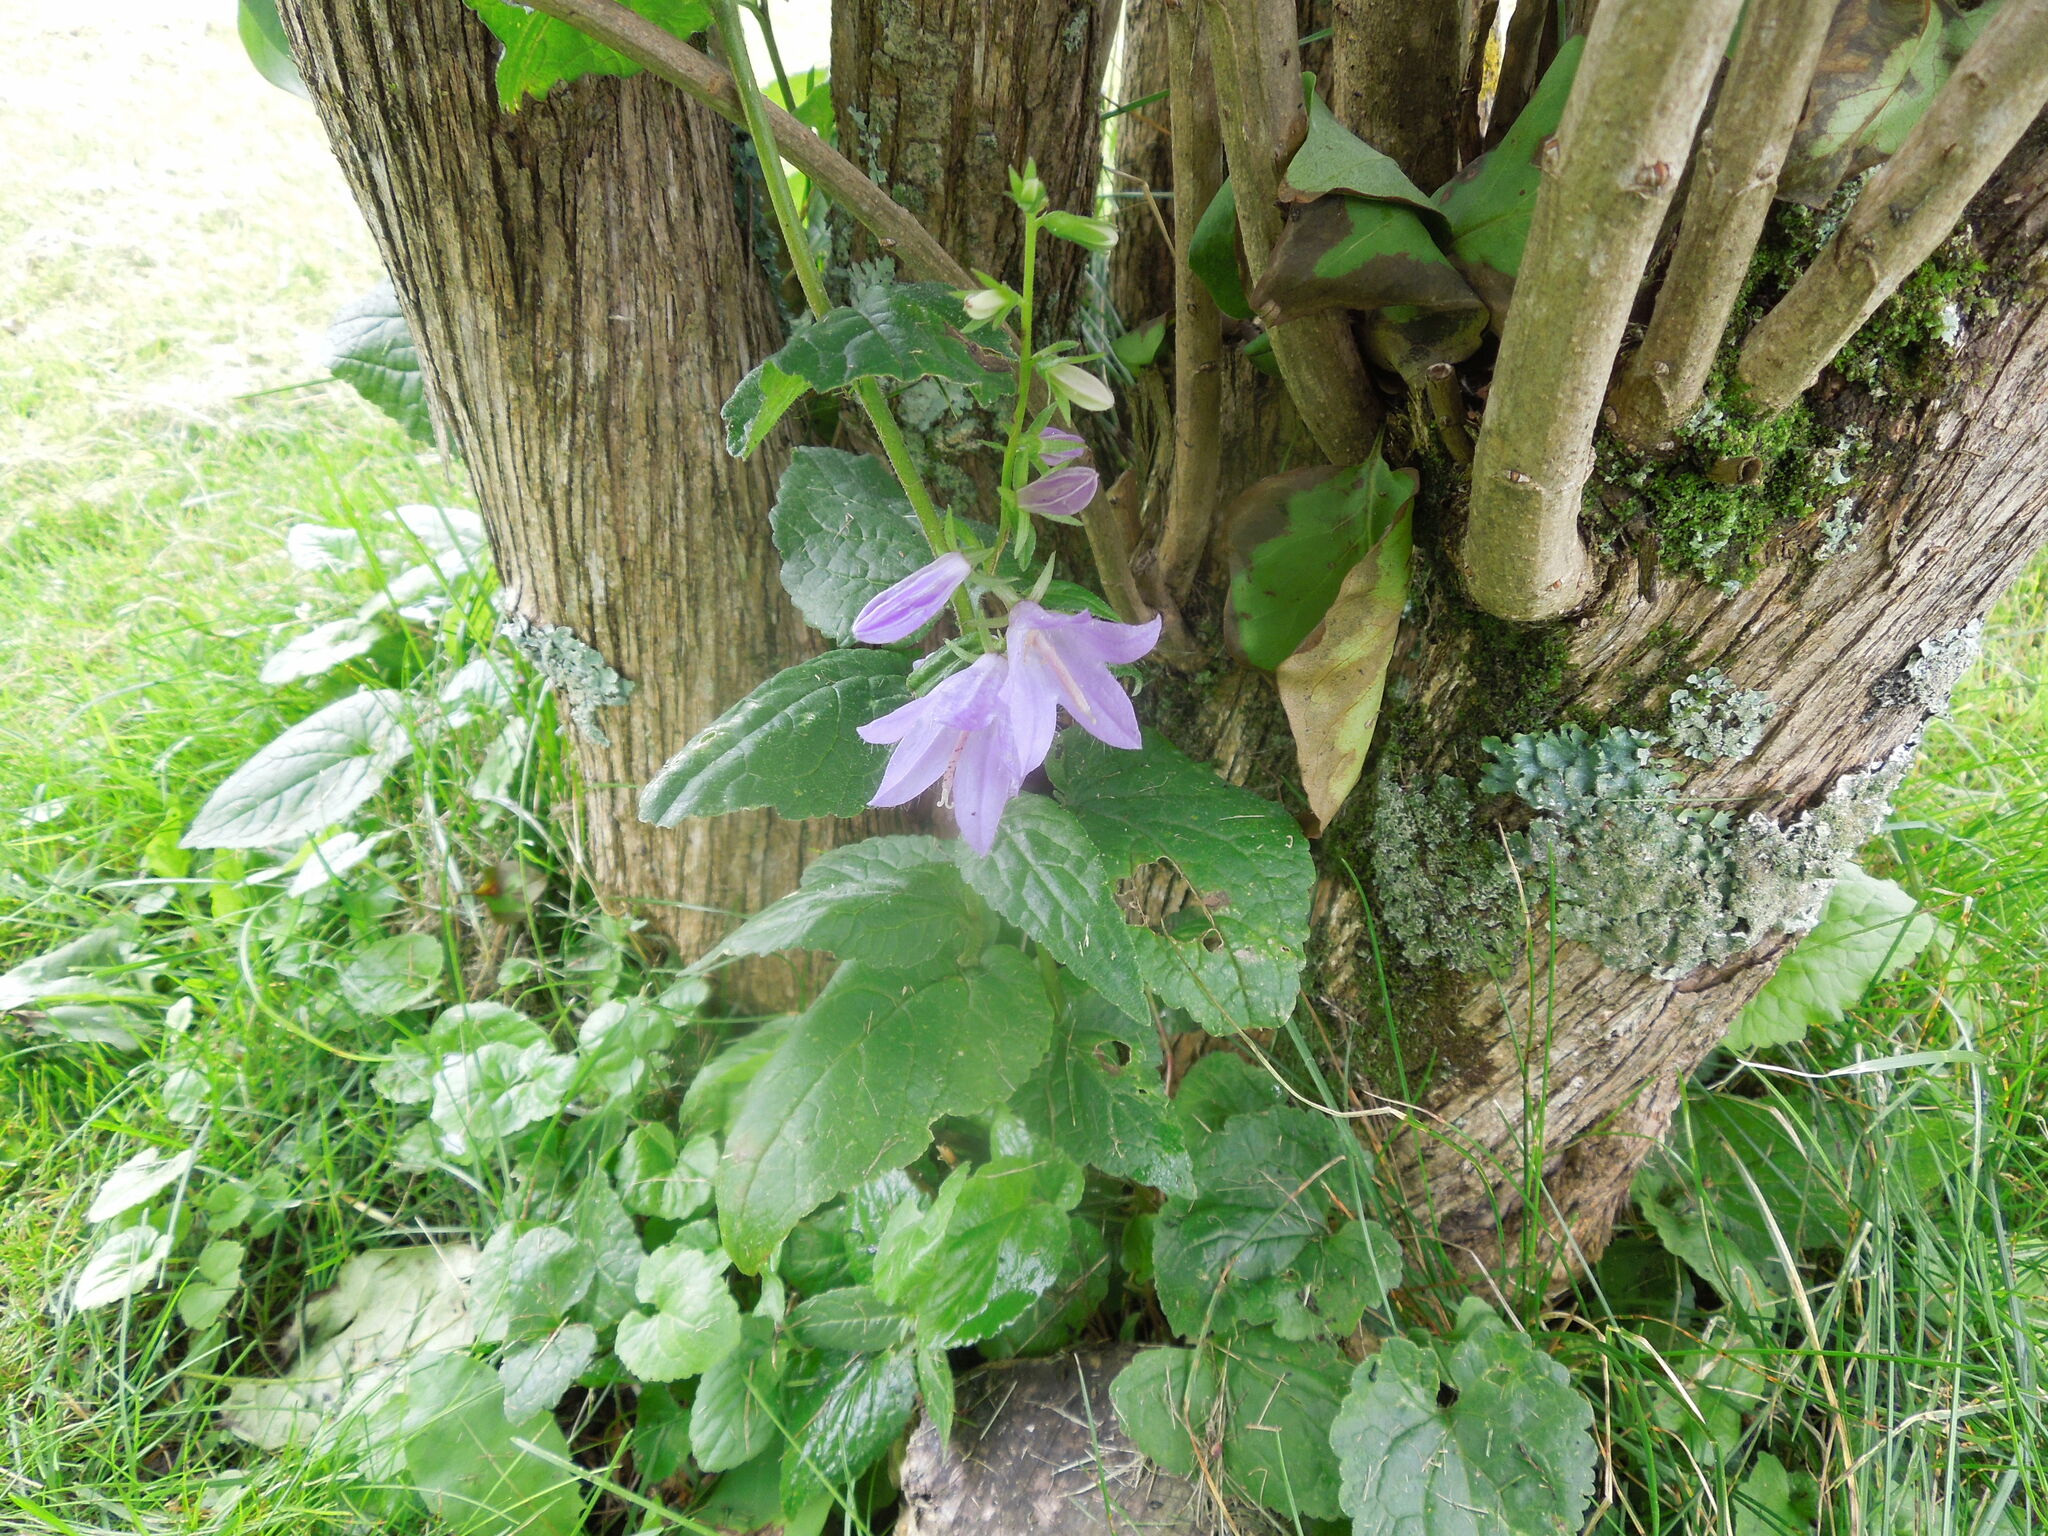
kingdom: Plantae
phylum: Tracheophyta
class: Magnoliopsida
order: Asterales
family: Campanulaceae
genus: Campanula
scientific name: Campanula rapunculoides
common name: Creeping bellflower
